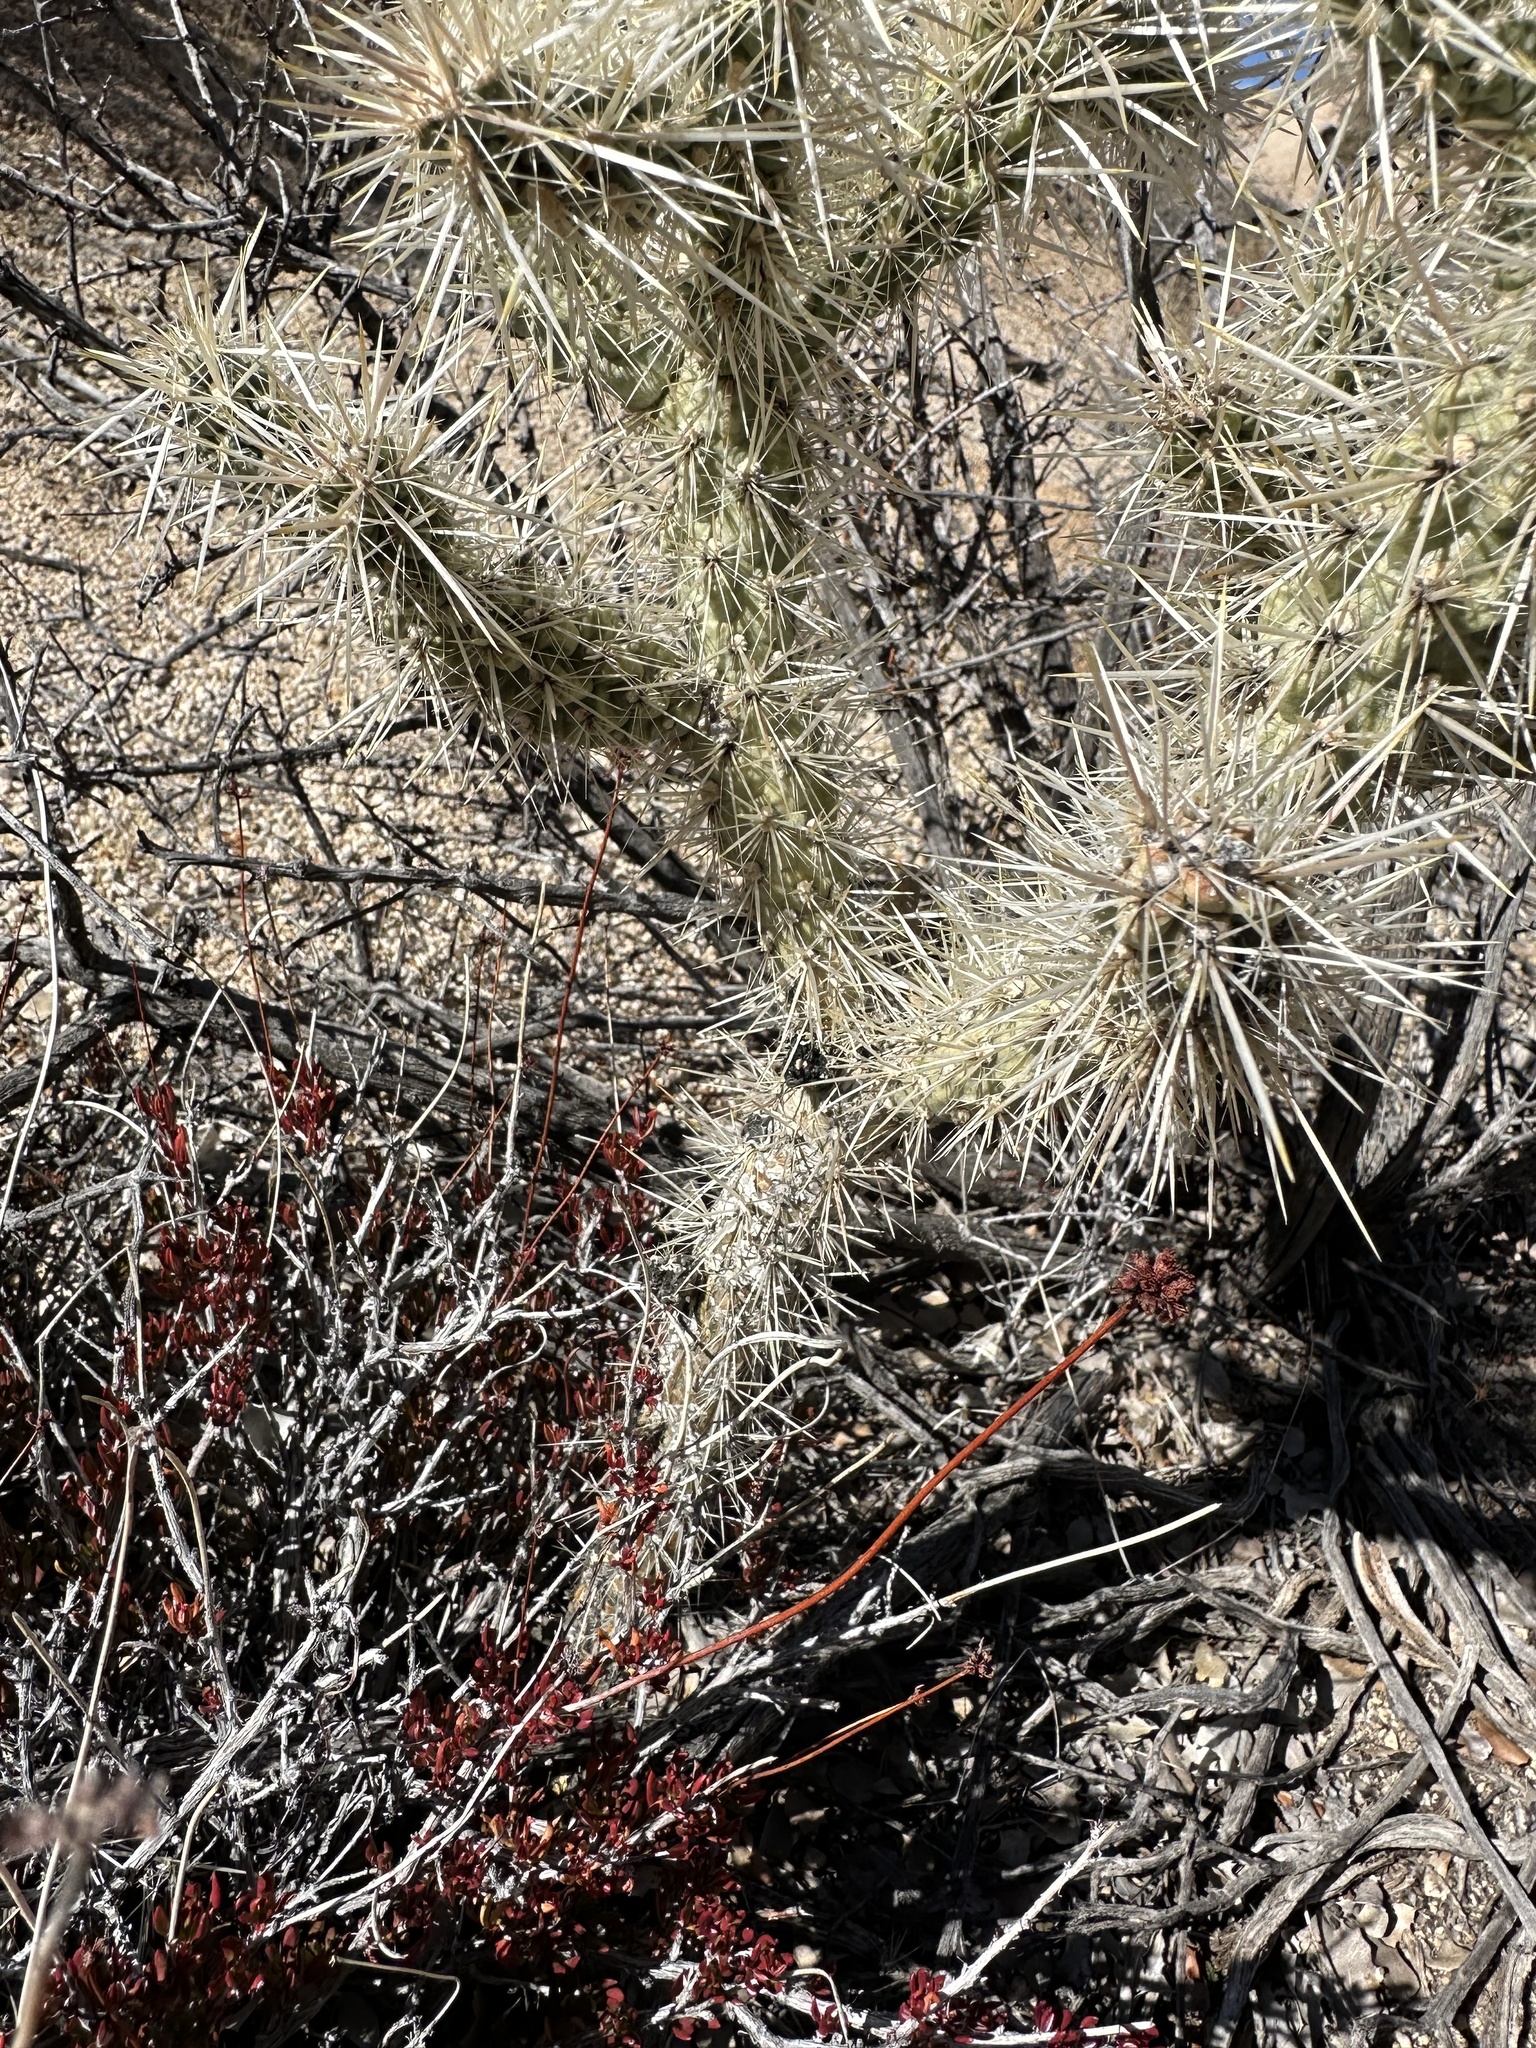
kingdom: Plantae
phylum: Tracheophyta
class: Magnoliopsida
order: Caryophyllales
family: Cactaceae
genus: Cylindropuntia
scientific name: Cylindropuntia echinocarpa
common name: Ground cholla
